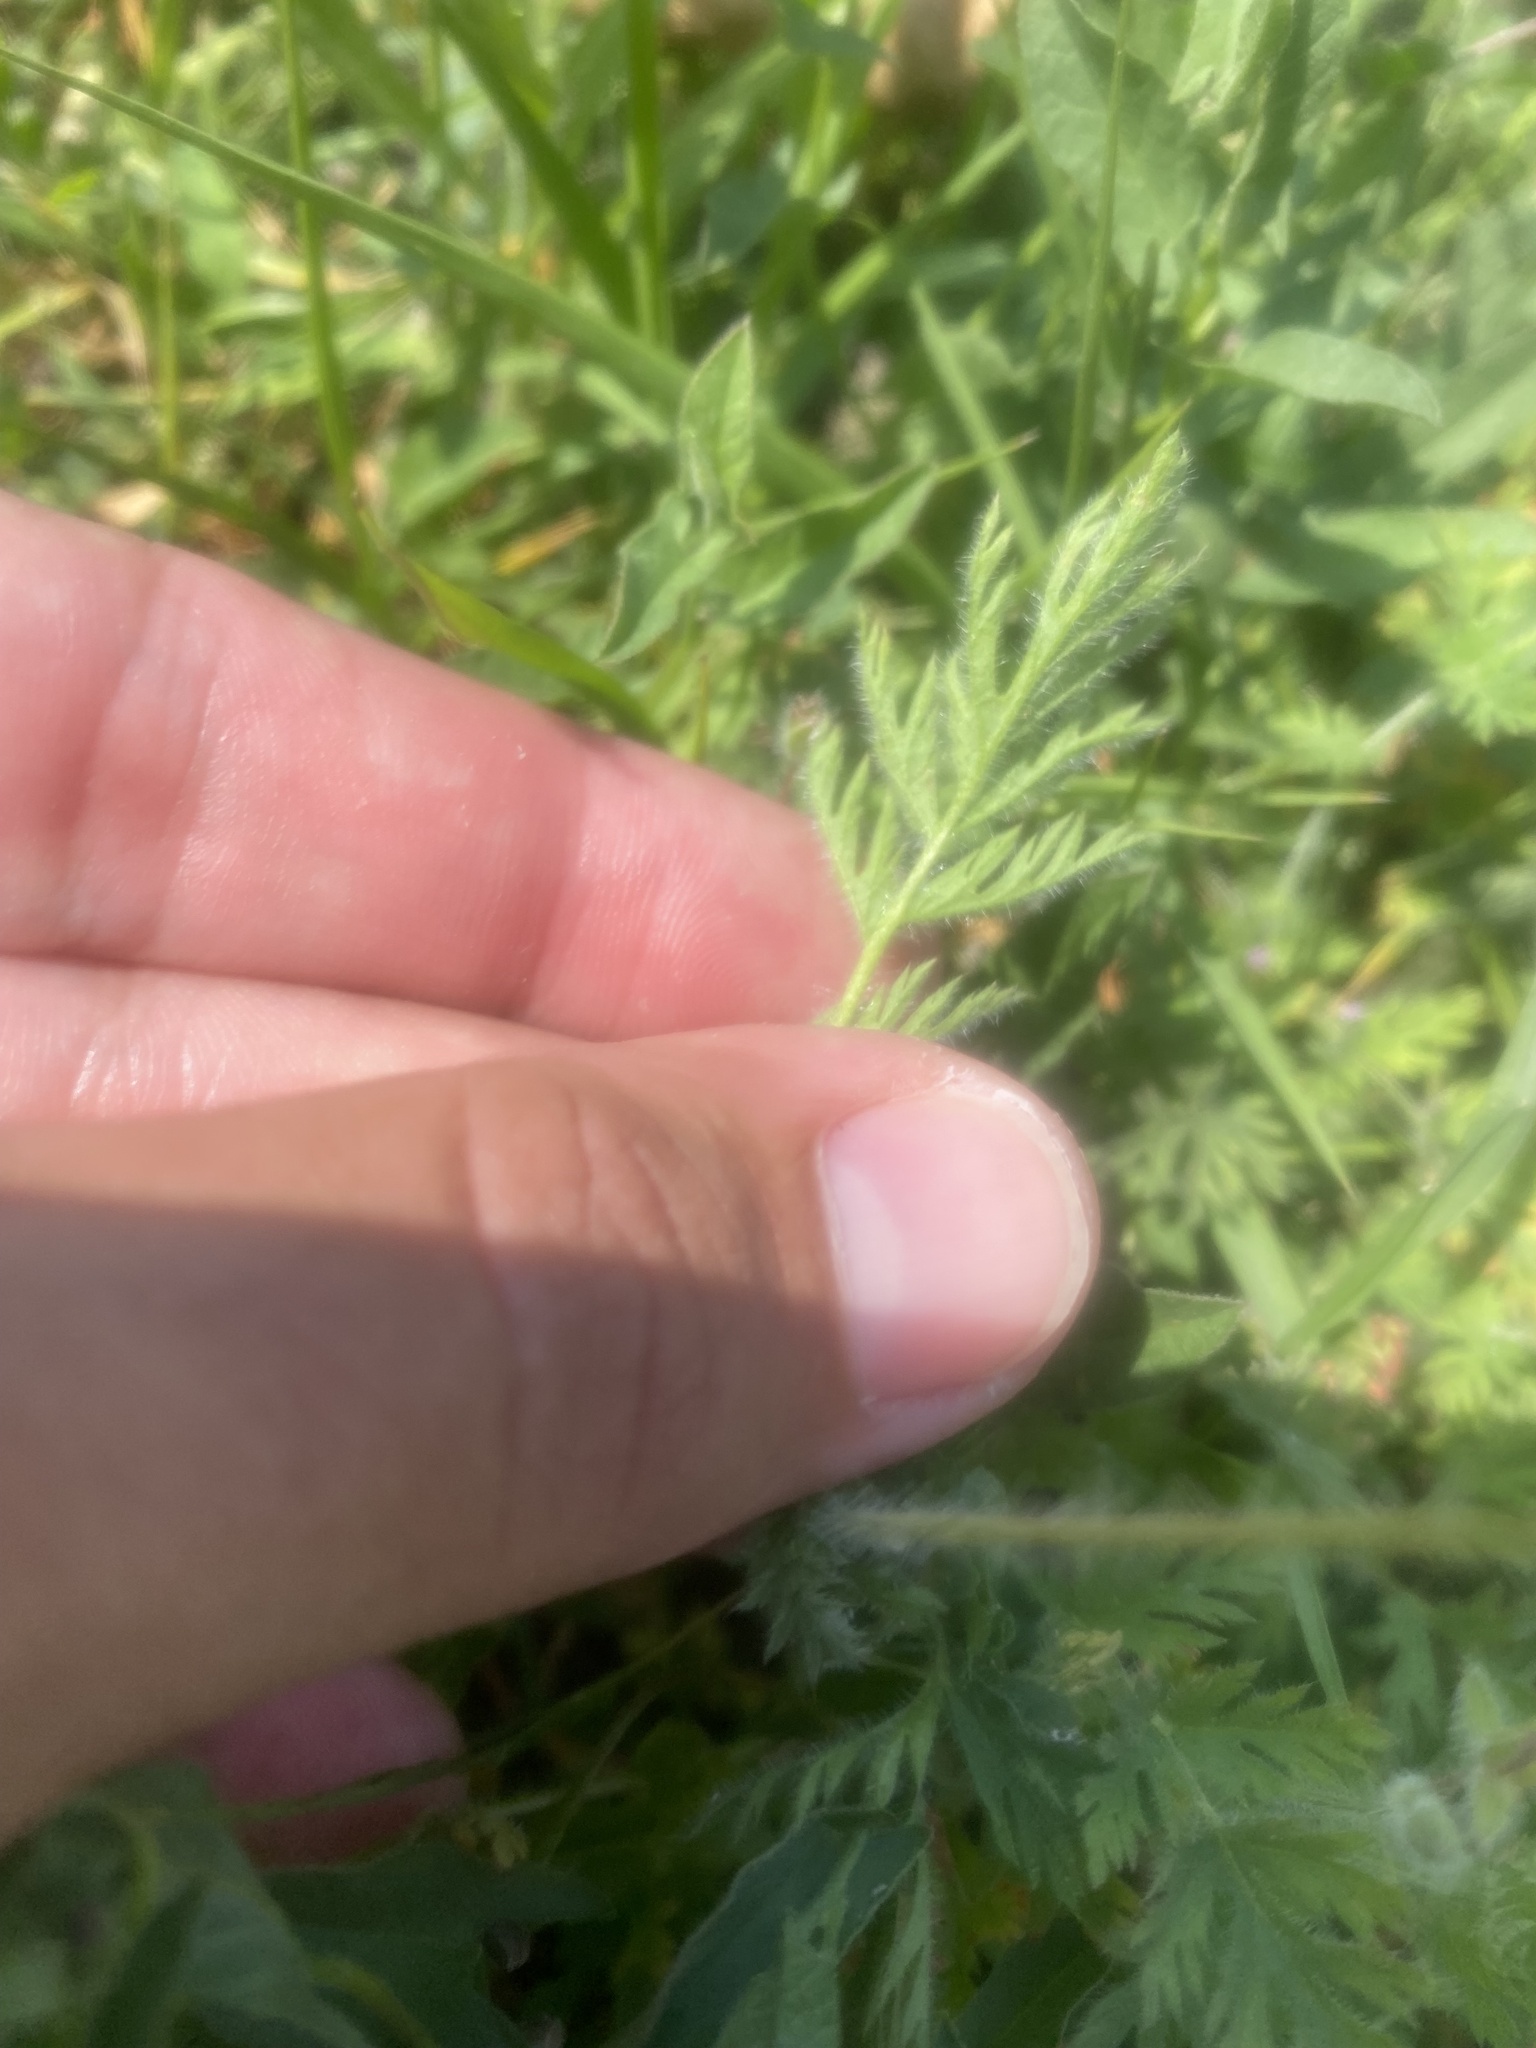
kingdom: Plantae
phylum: Tracheophyta
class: Magnoliopsida
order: Geraniales
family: Geraniaceae
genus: Erodium
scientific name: Erodium cicutarium
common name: Common stork's-bill
